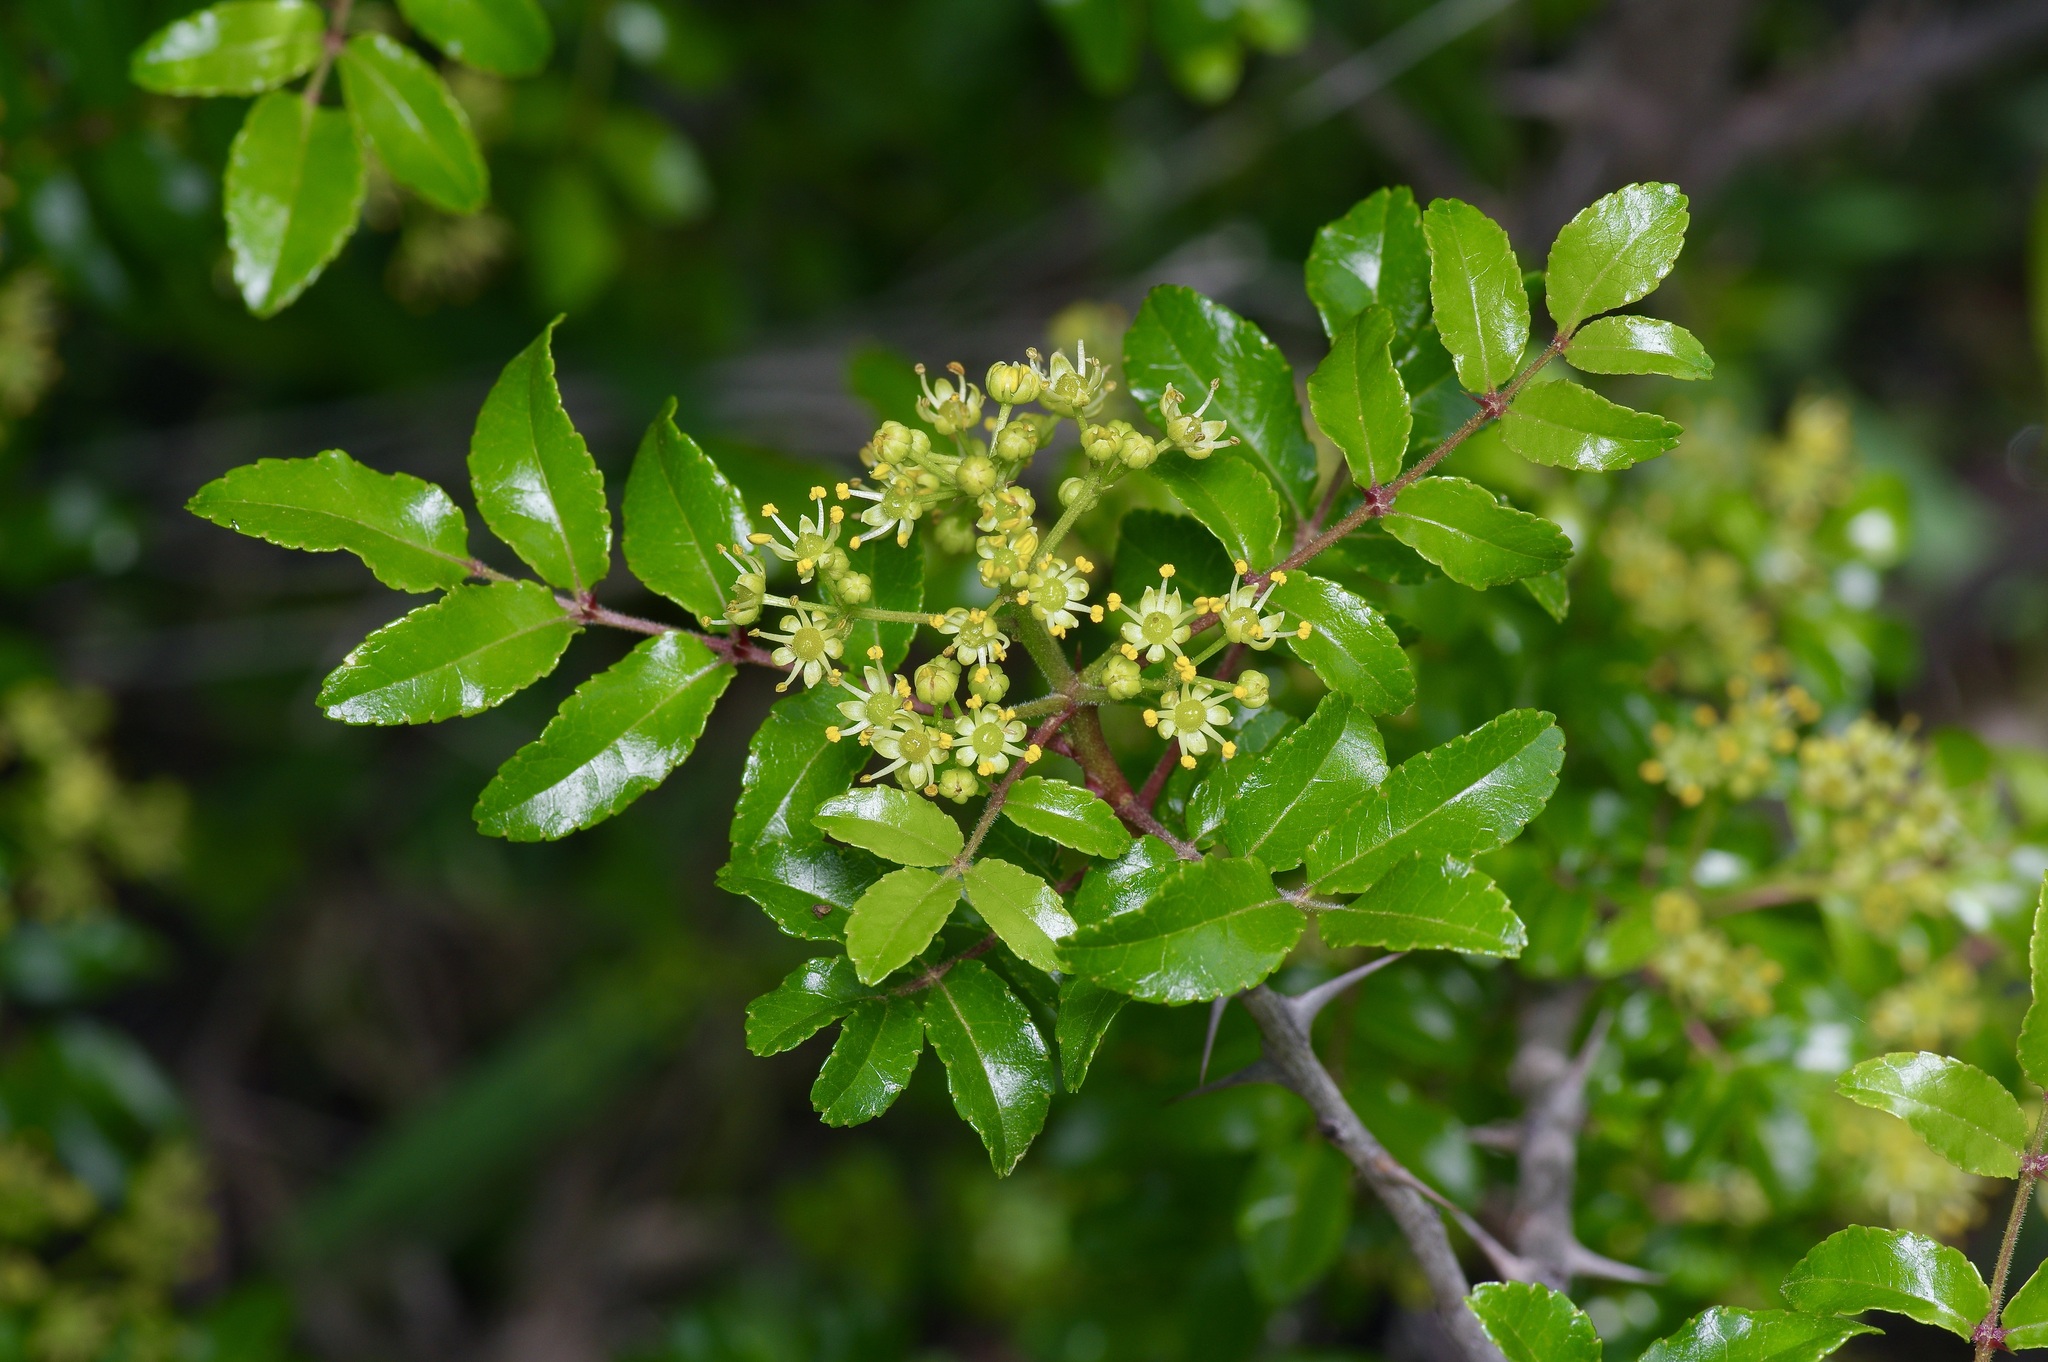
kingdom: Plantae
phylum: Tracheophyta
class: Magnoliopsida
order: Sapindales
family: Rutaceae
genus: Zanthoxylum
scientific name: Zanthoxylum clava-herculis
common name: Hercules'-club
